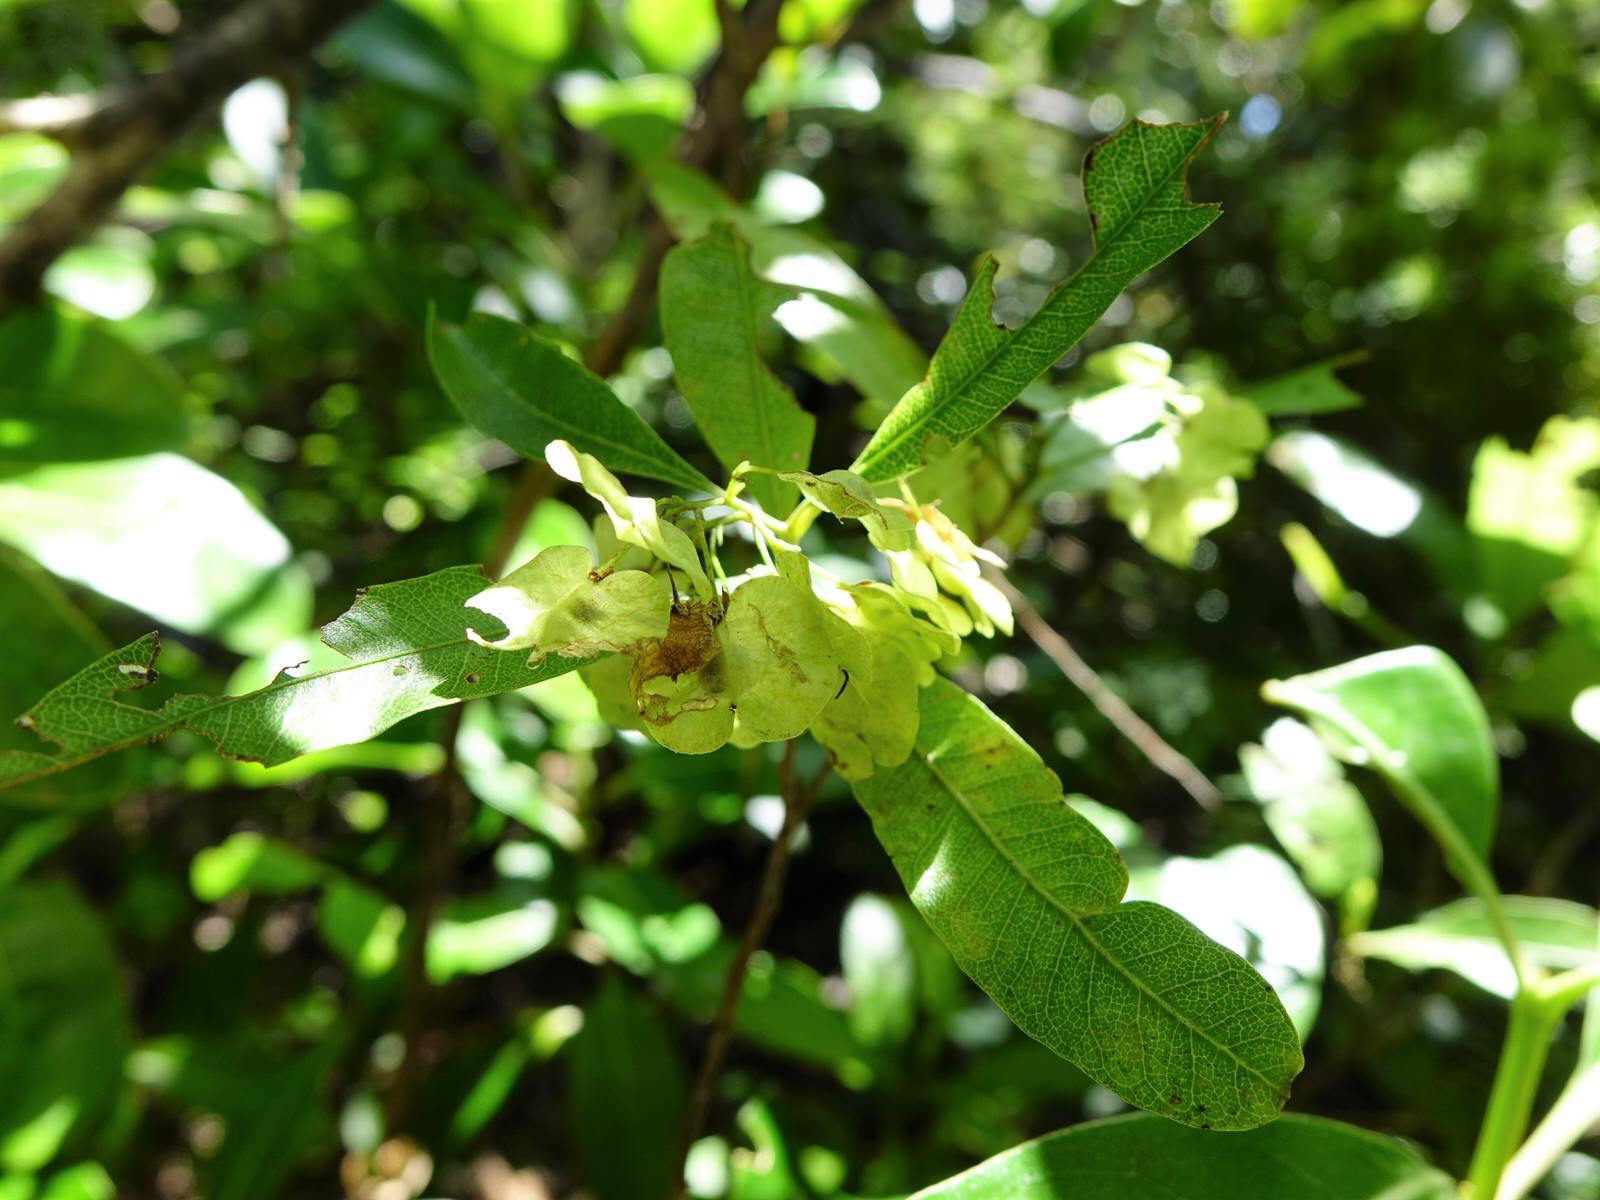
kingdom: Plantae
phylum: Tracheophyta
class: Magnoliopsida
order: Sapindales
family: Sapindaceae
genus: Dodonaea
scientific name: Dodonaea viscosa
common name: Hopbush
